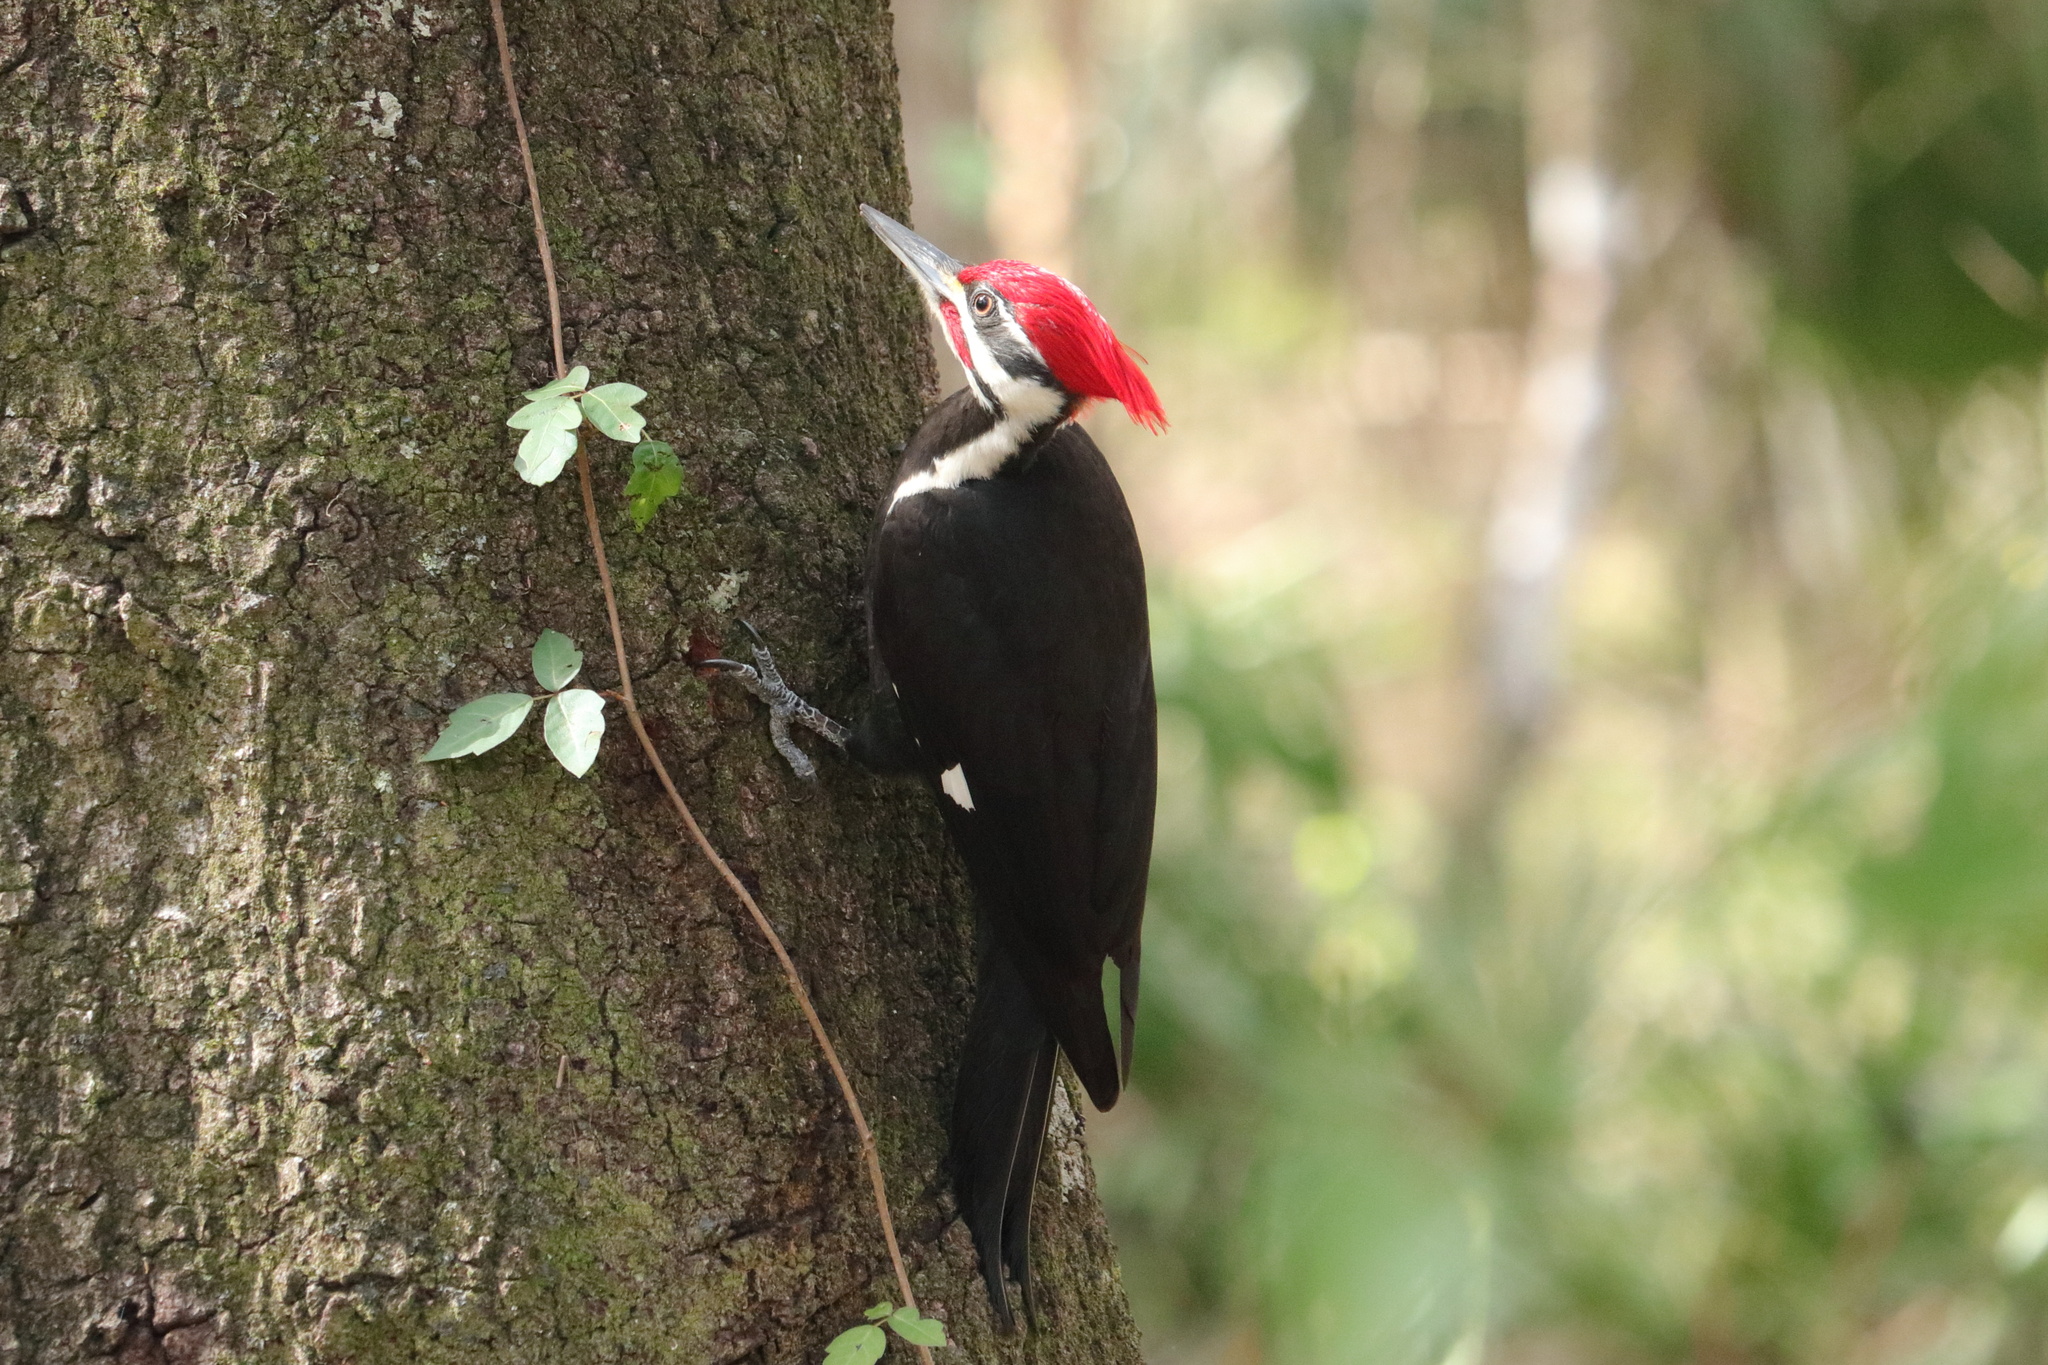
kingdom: Animalia
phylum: Chordata
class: Aves
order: Piciformes
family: Picidae
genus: Dryocopus
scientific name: Dryocopus pileatus
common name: Pileated woodpecker
